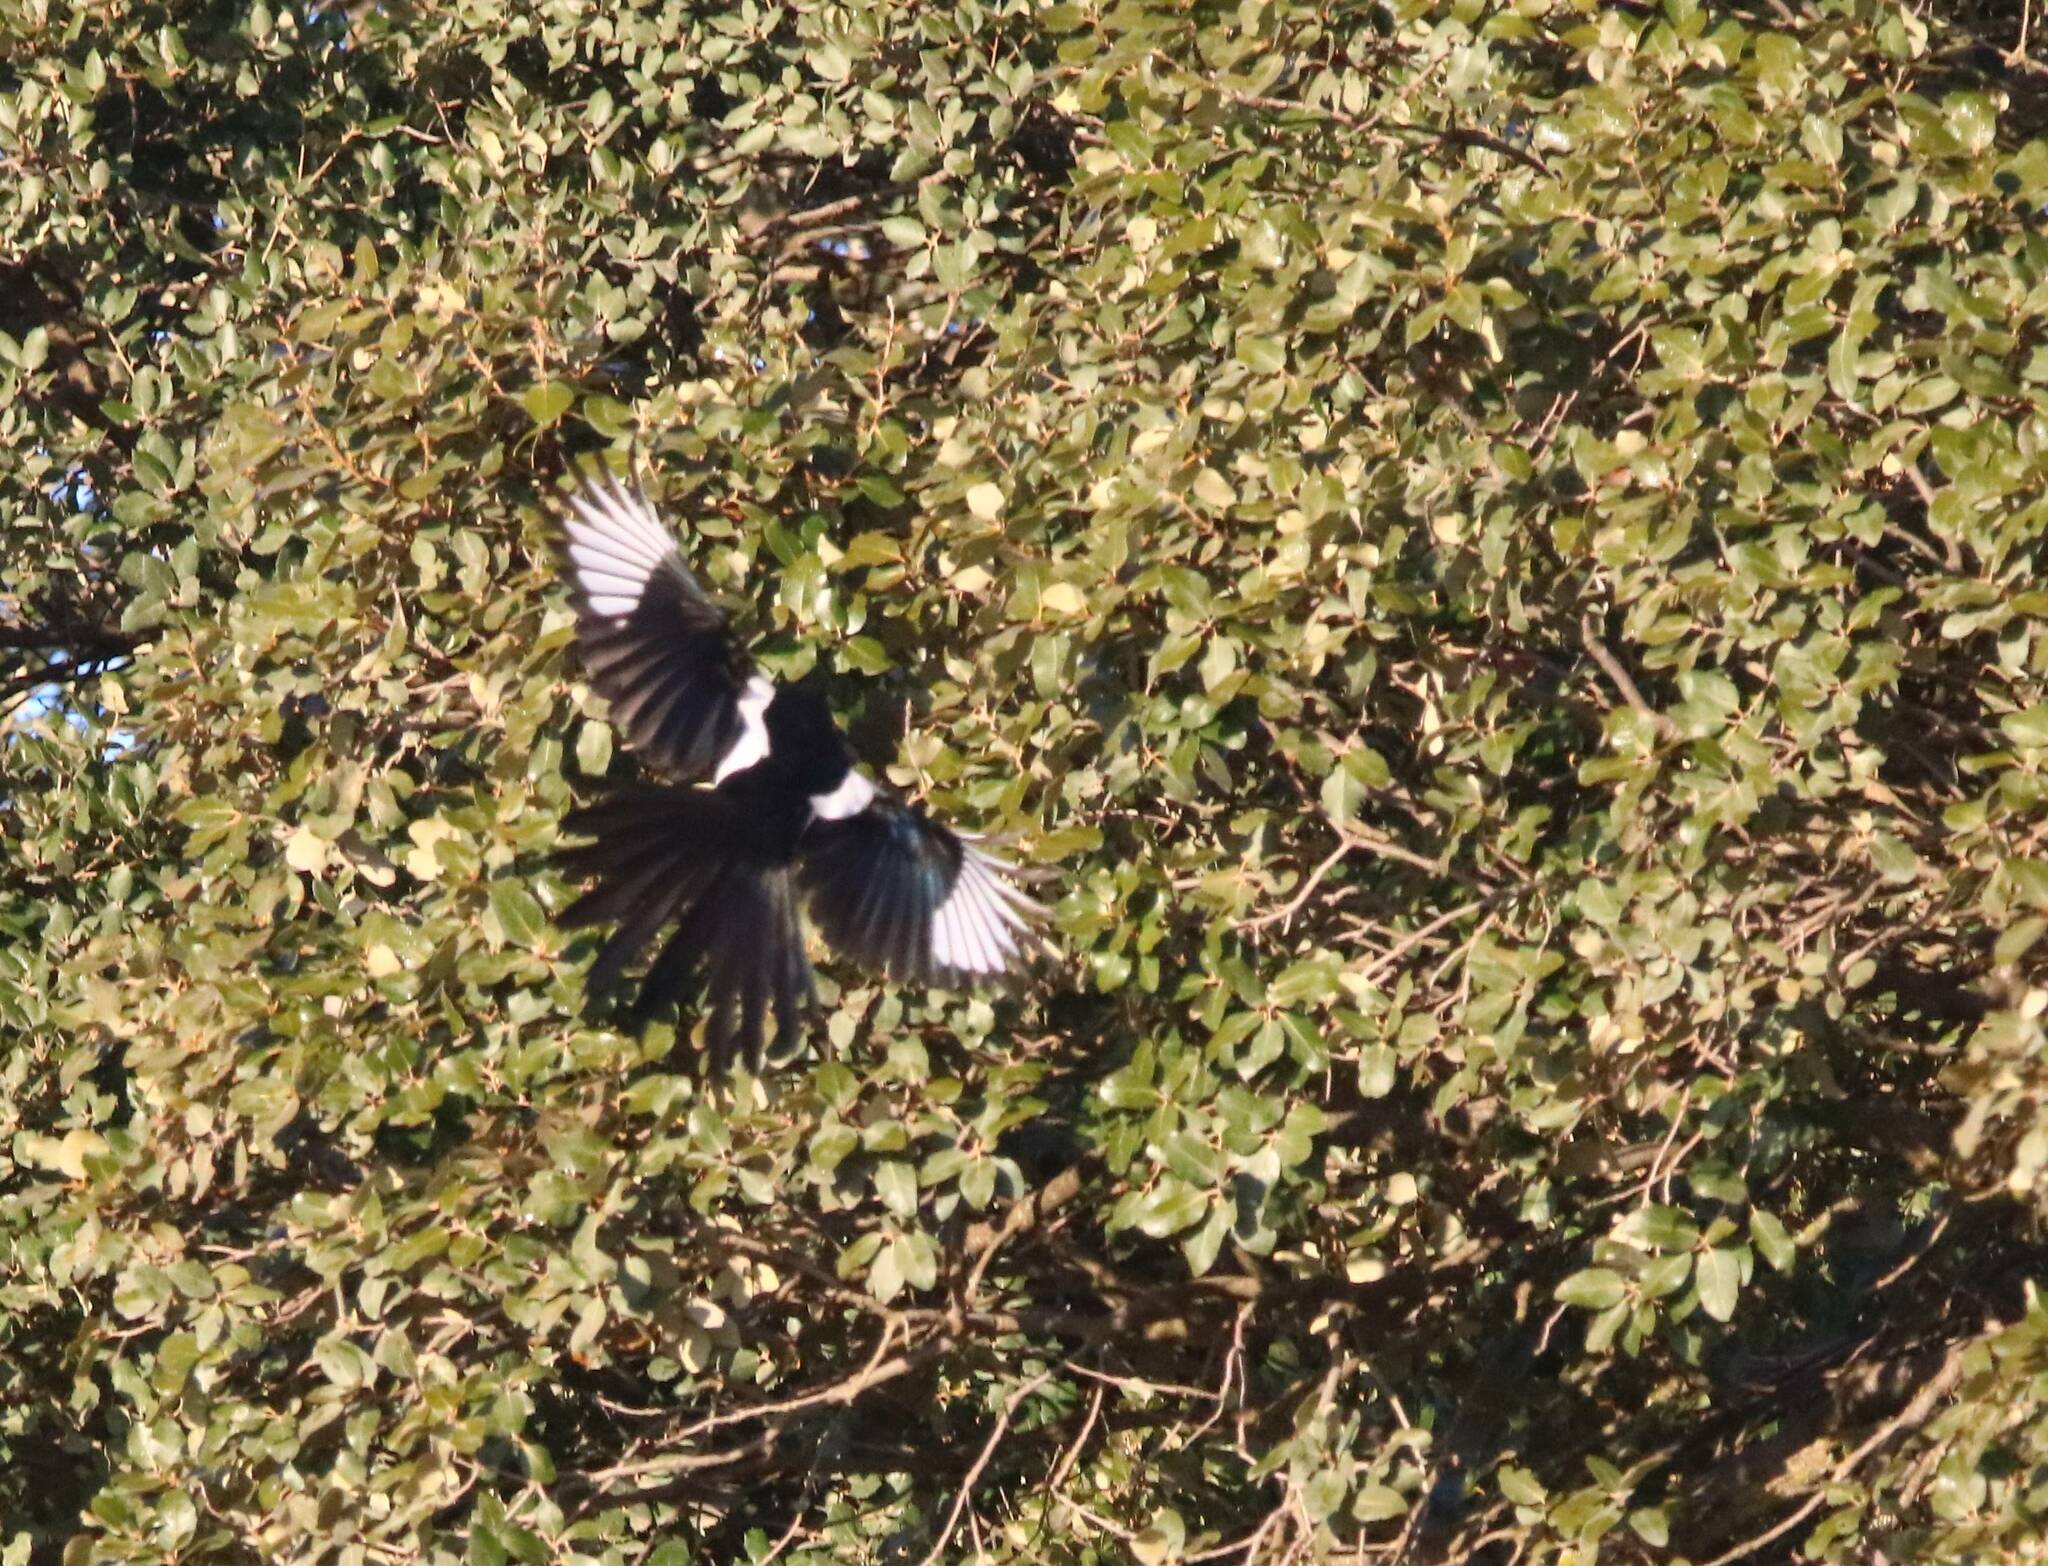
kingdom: Animalia
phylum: Chordata
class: Aves
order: Passeriformes
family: Corvidae
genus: Pica
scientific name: Pica mauritanica
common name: Maghreb magpie
